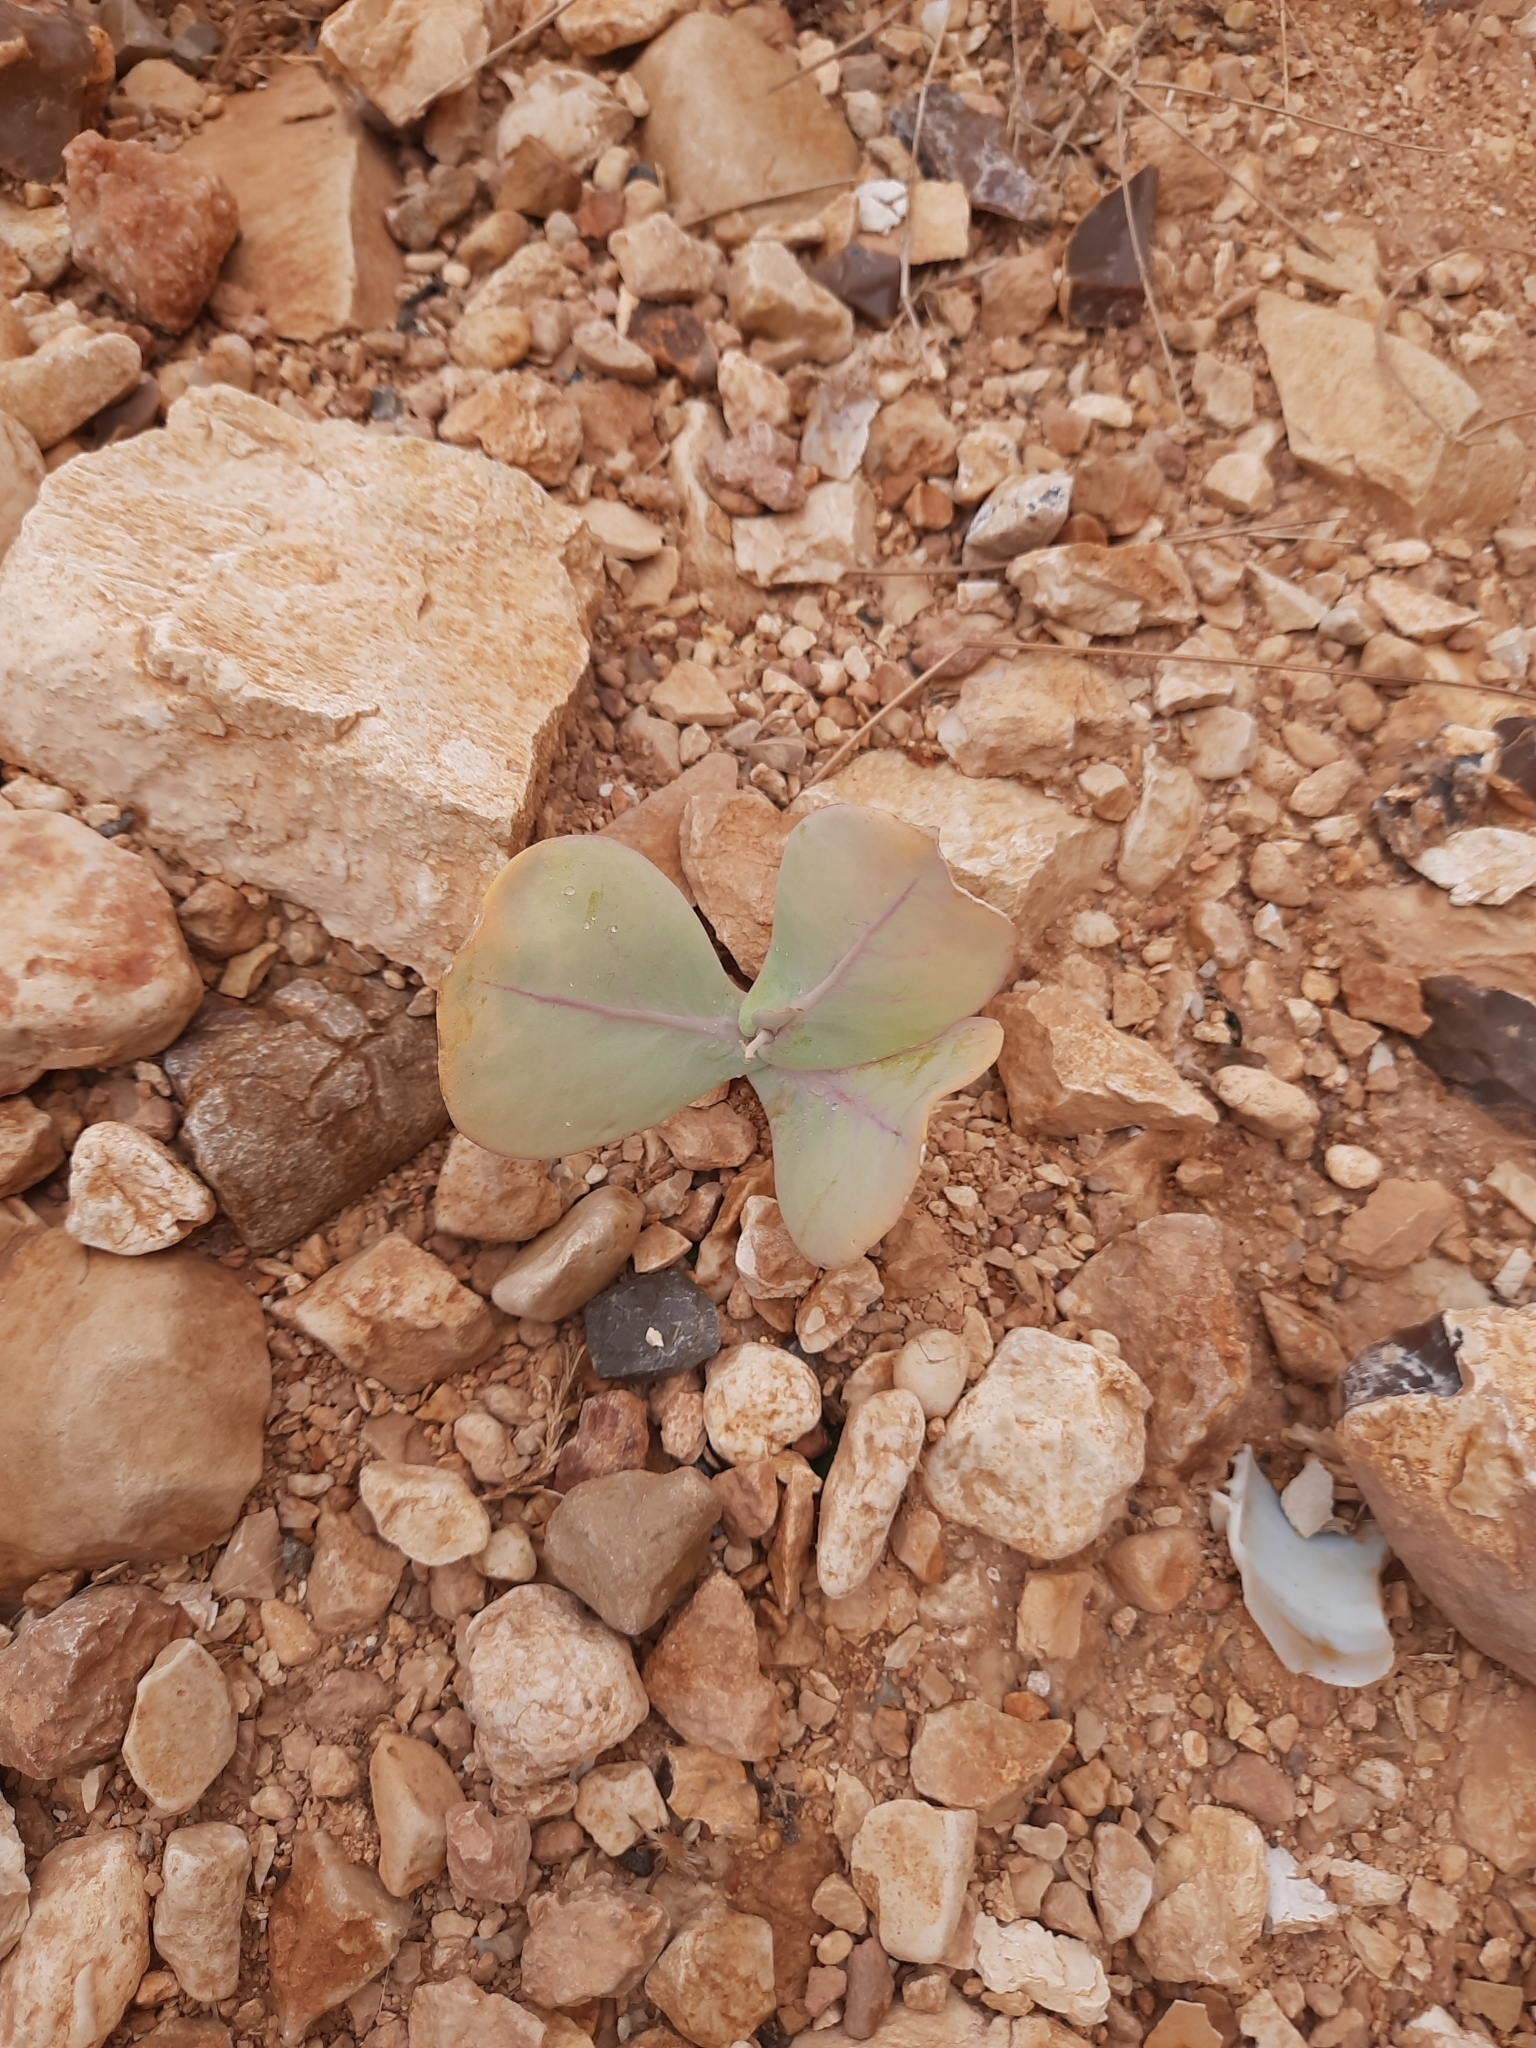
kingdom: Plantae
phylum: Tracheophyta
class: Magnoliopsida
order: Brassicales
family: Brassicaceae
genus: Moricandia
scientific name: Moricandia suffruticosa
